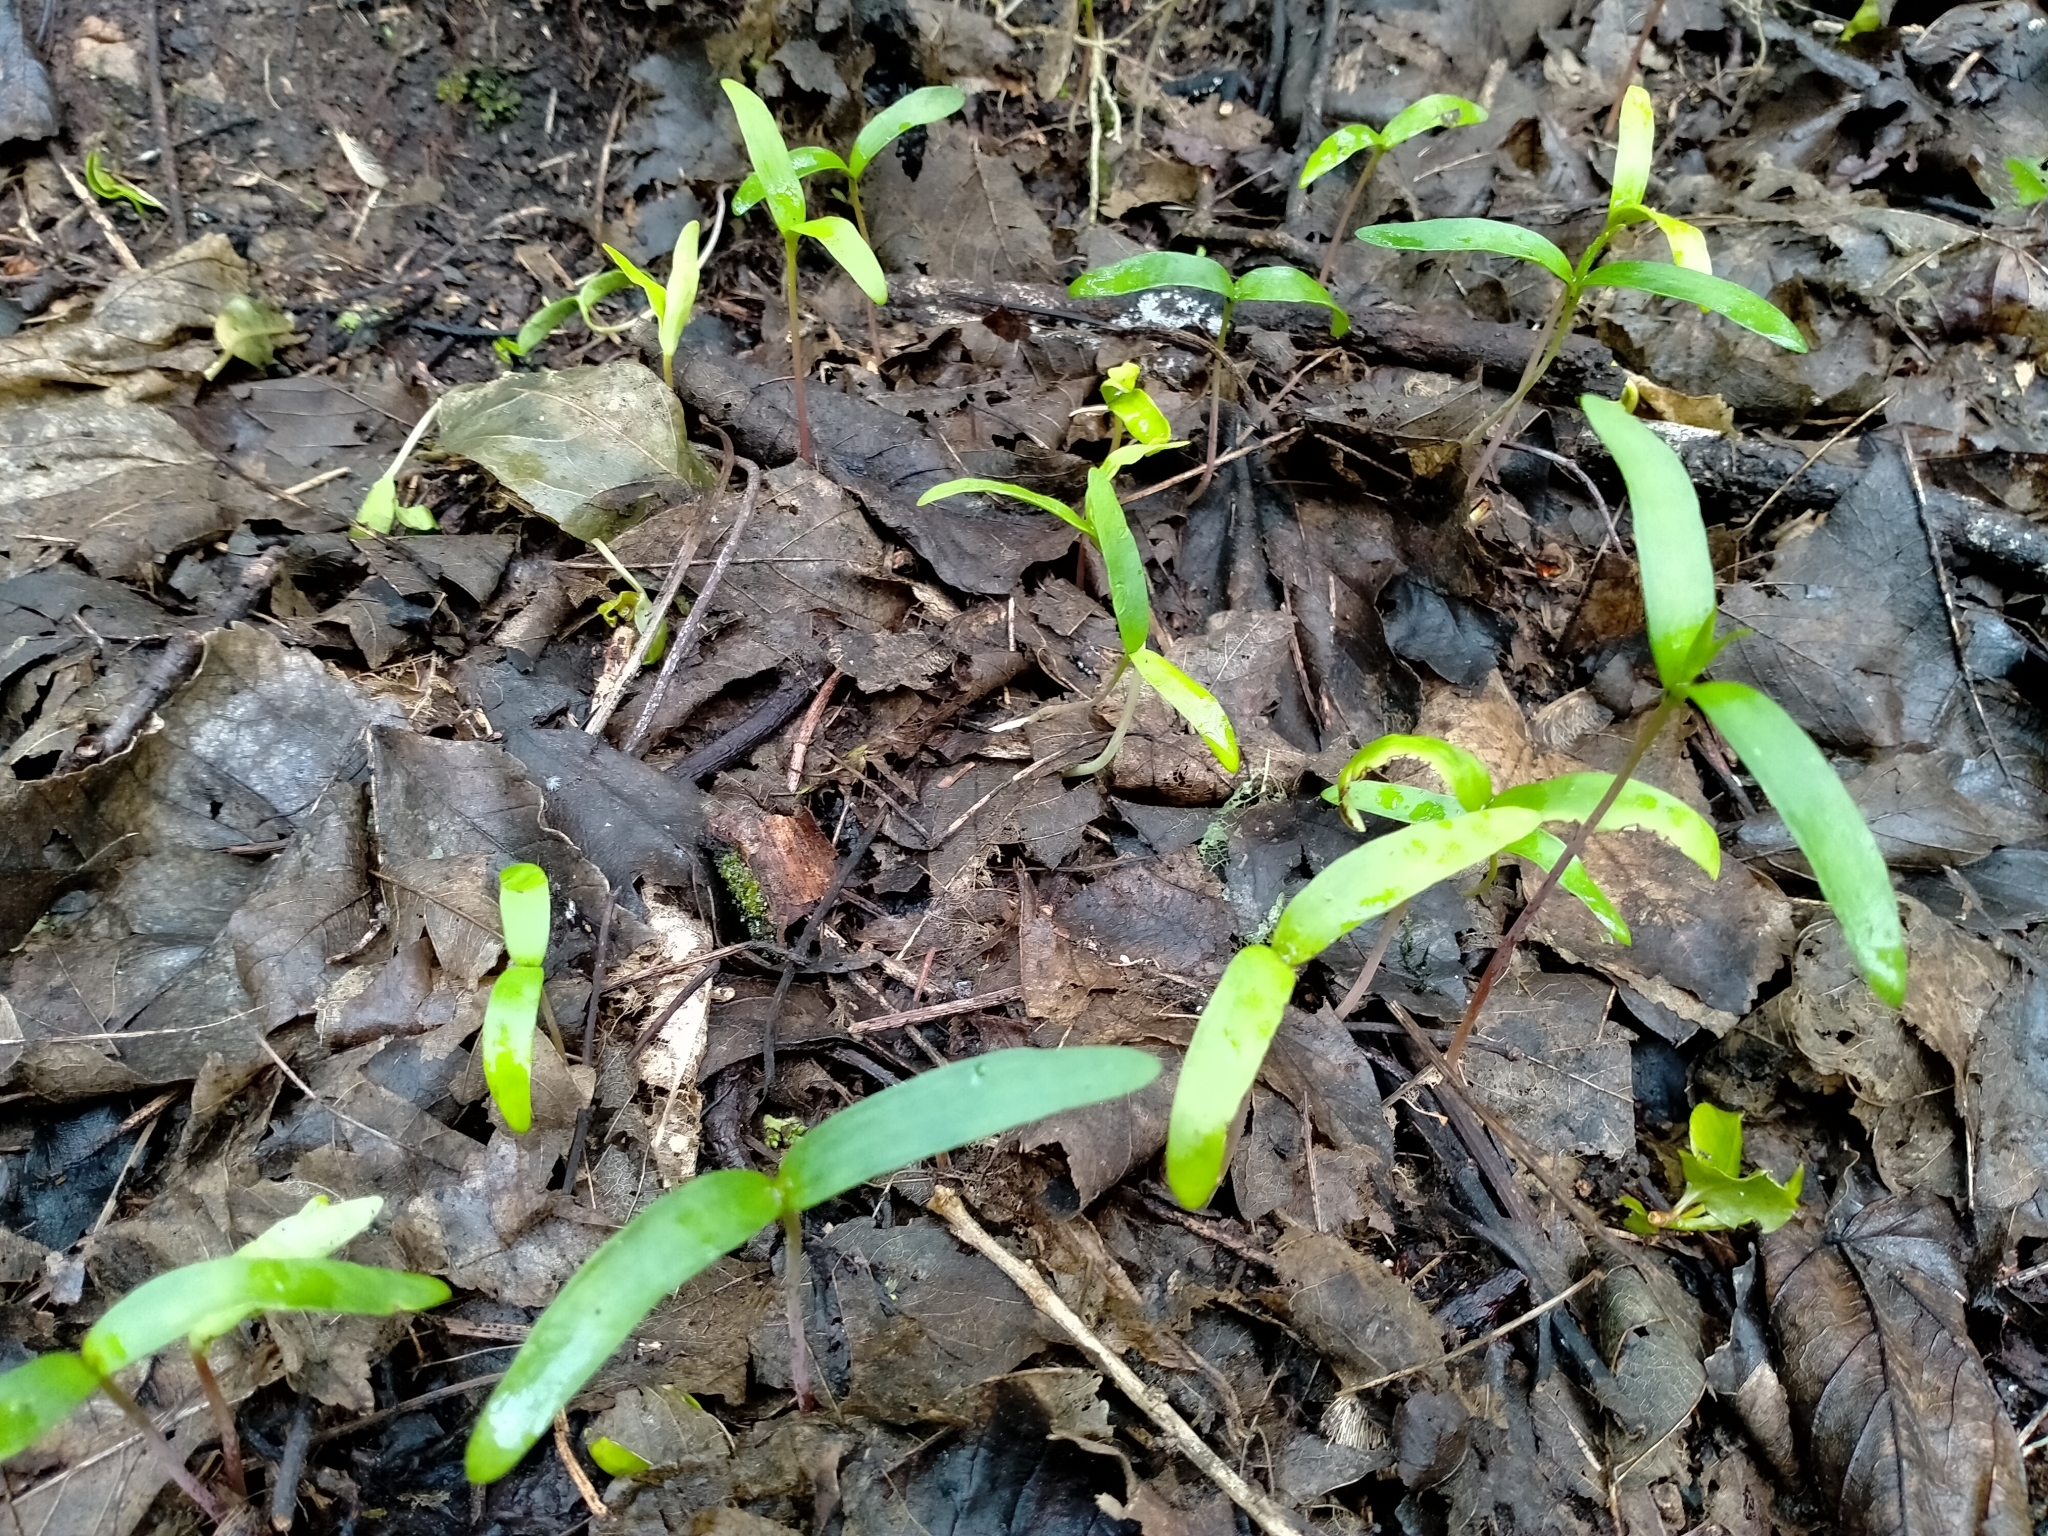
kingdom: Plantae
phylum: Tracheophyta
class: Magnoliopsida
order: Sapindales
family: Sapindaceae
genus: Acer
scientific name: Acer pseudoplatanus
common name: Sycamore
